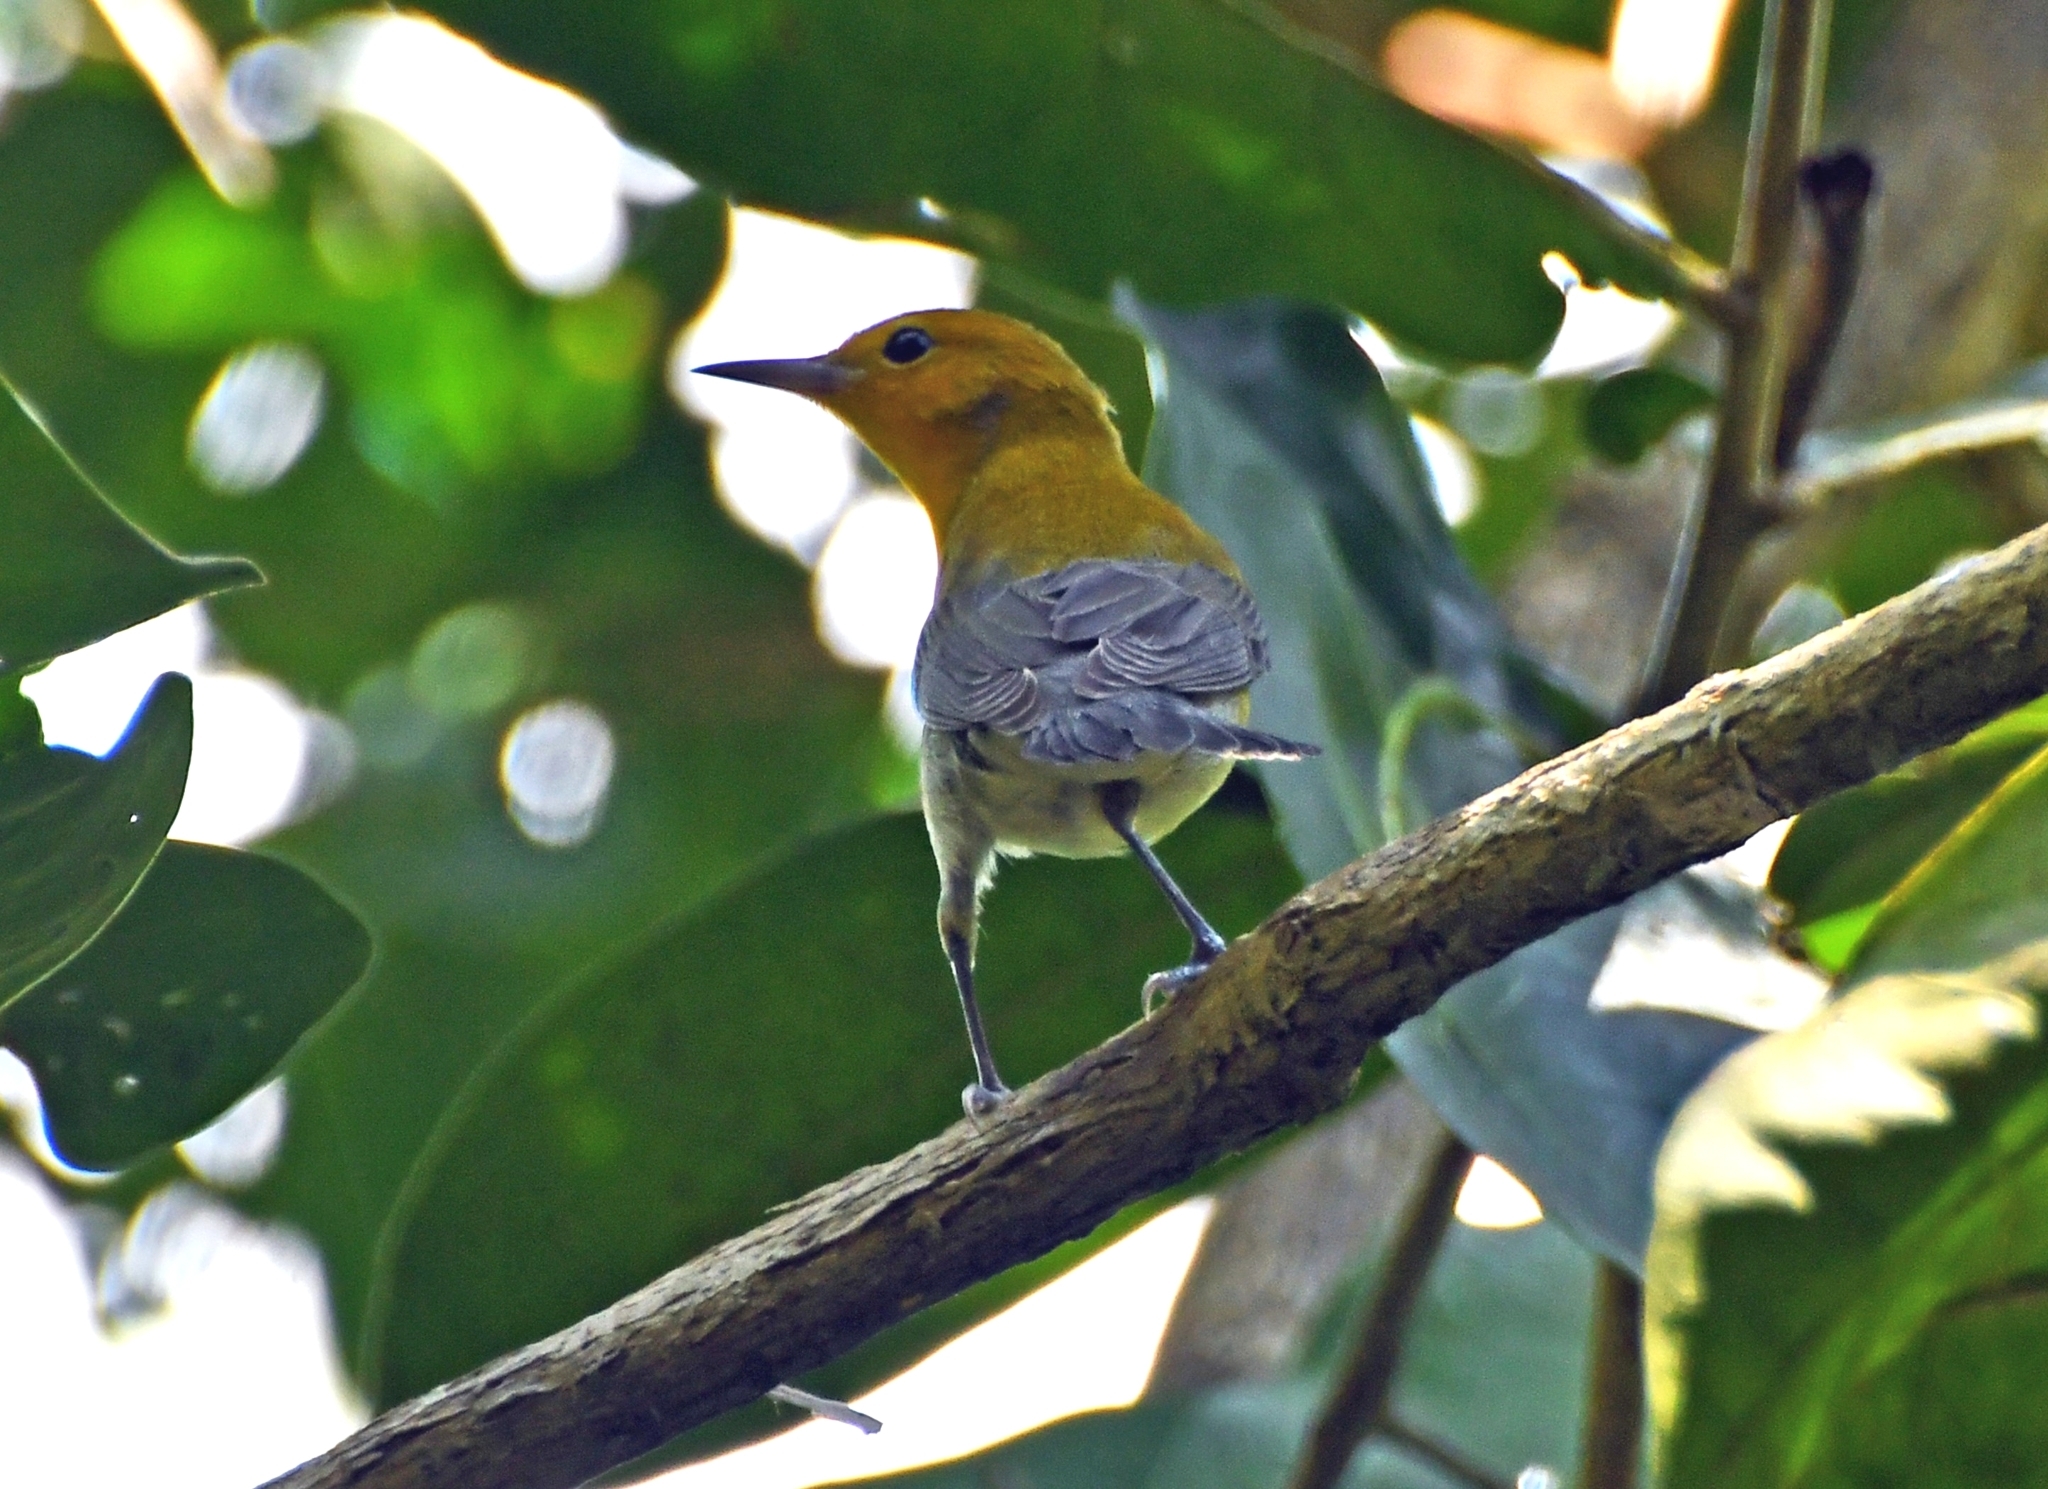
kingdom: Animalia
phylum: Chordata
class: Aves
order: Passeriformes
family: Parulidae
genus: Protonotaria
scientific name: Protonotaria citrea
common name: Prothonotary warbler
